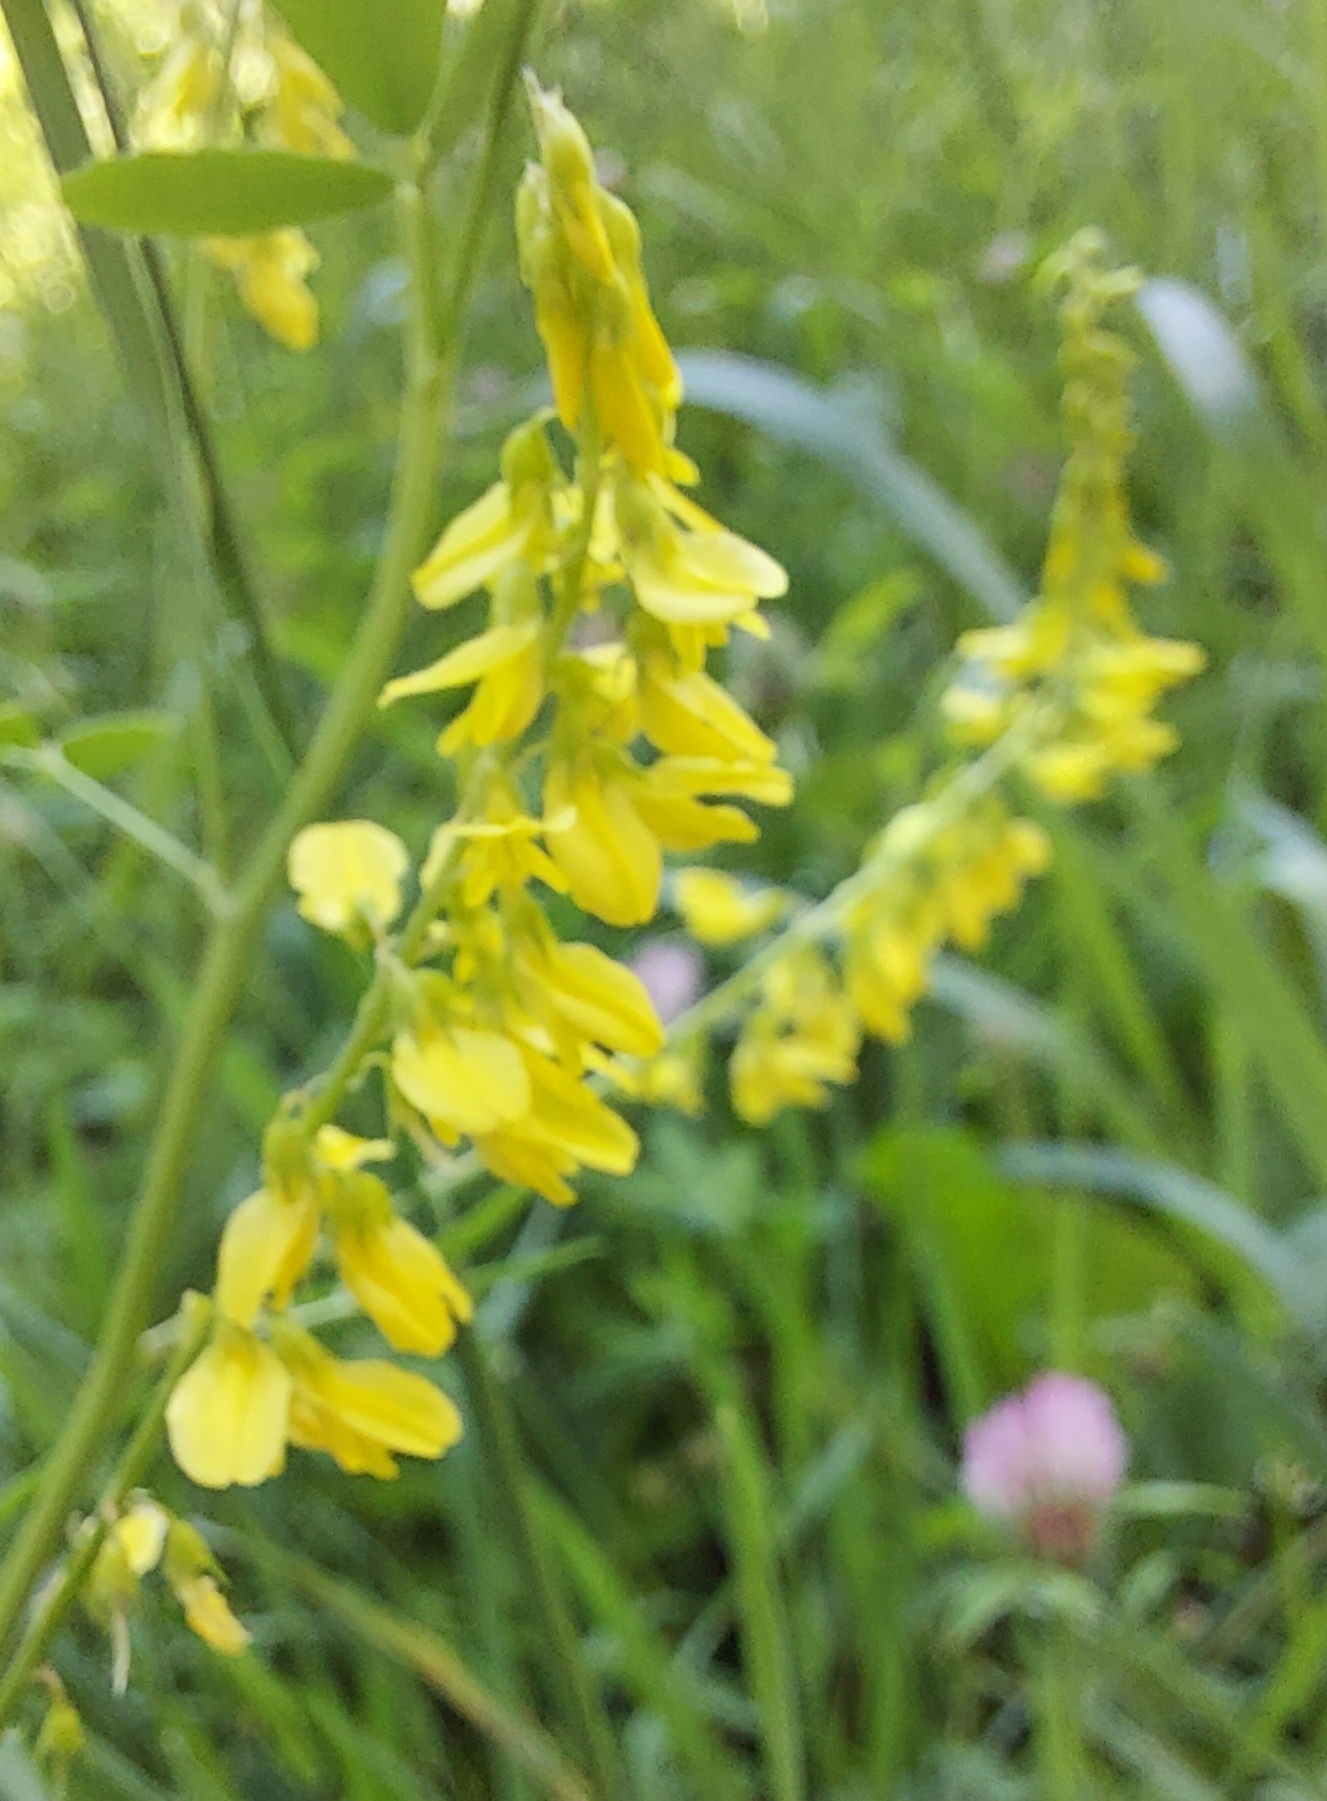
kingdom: Plantae
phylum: Tracheophyta
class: Magnoliopsida
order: Fabales
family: Fabaceae
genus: Melilotus
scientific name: Melilotus officinalis
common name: Sweetclover
